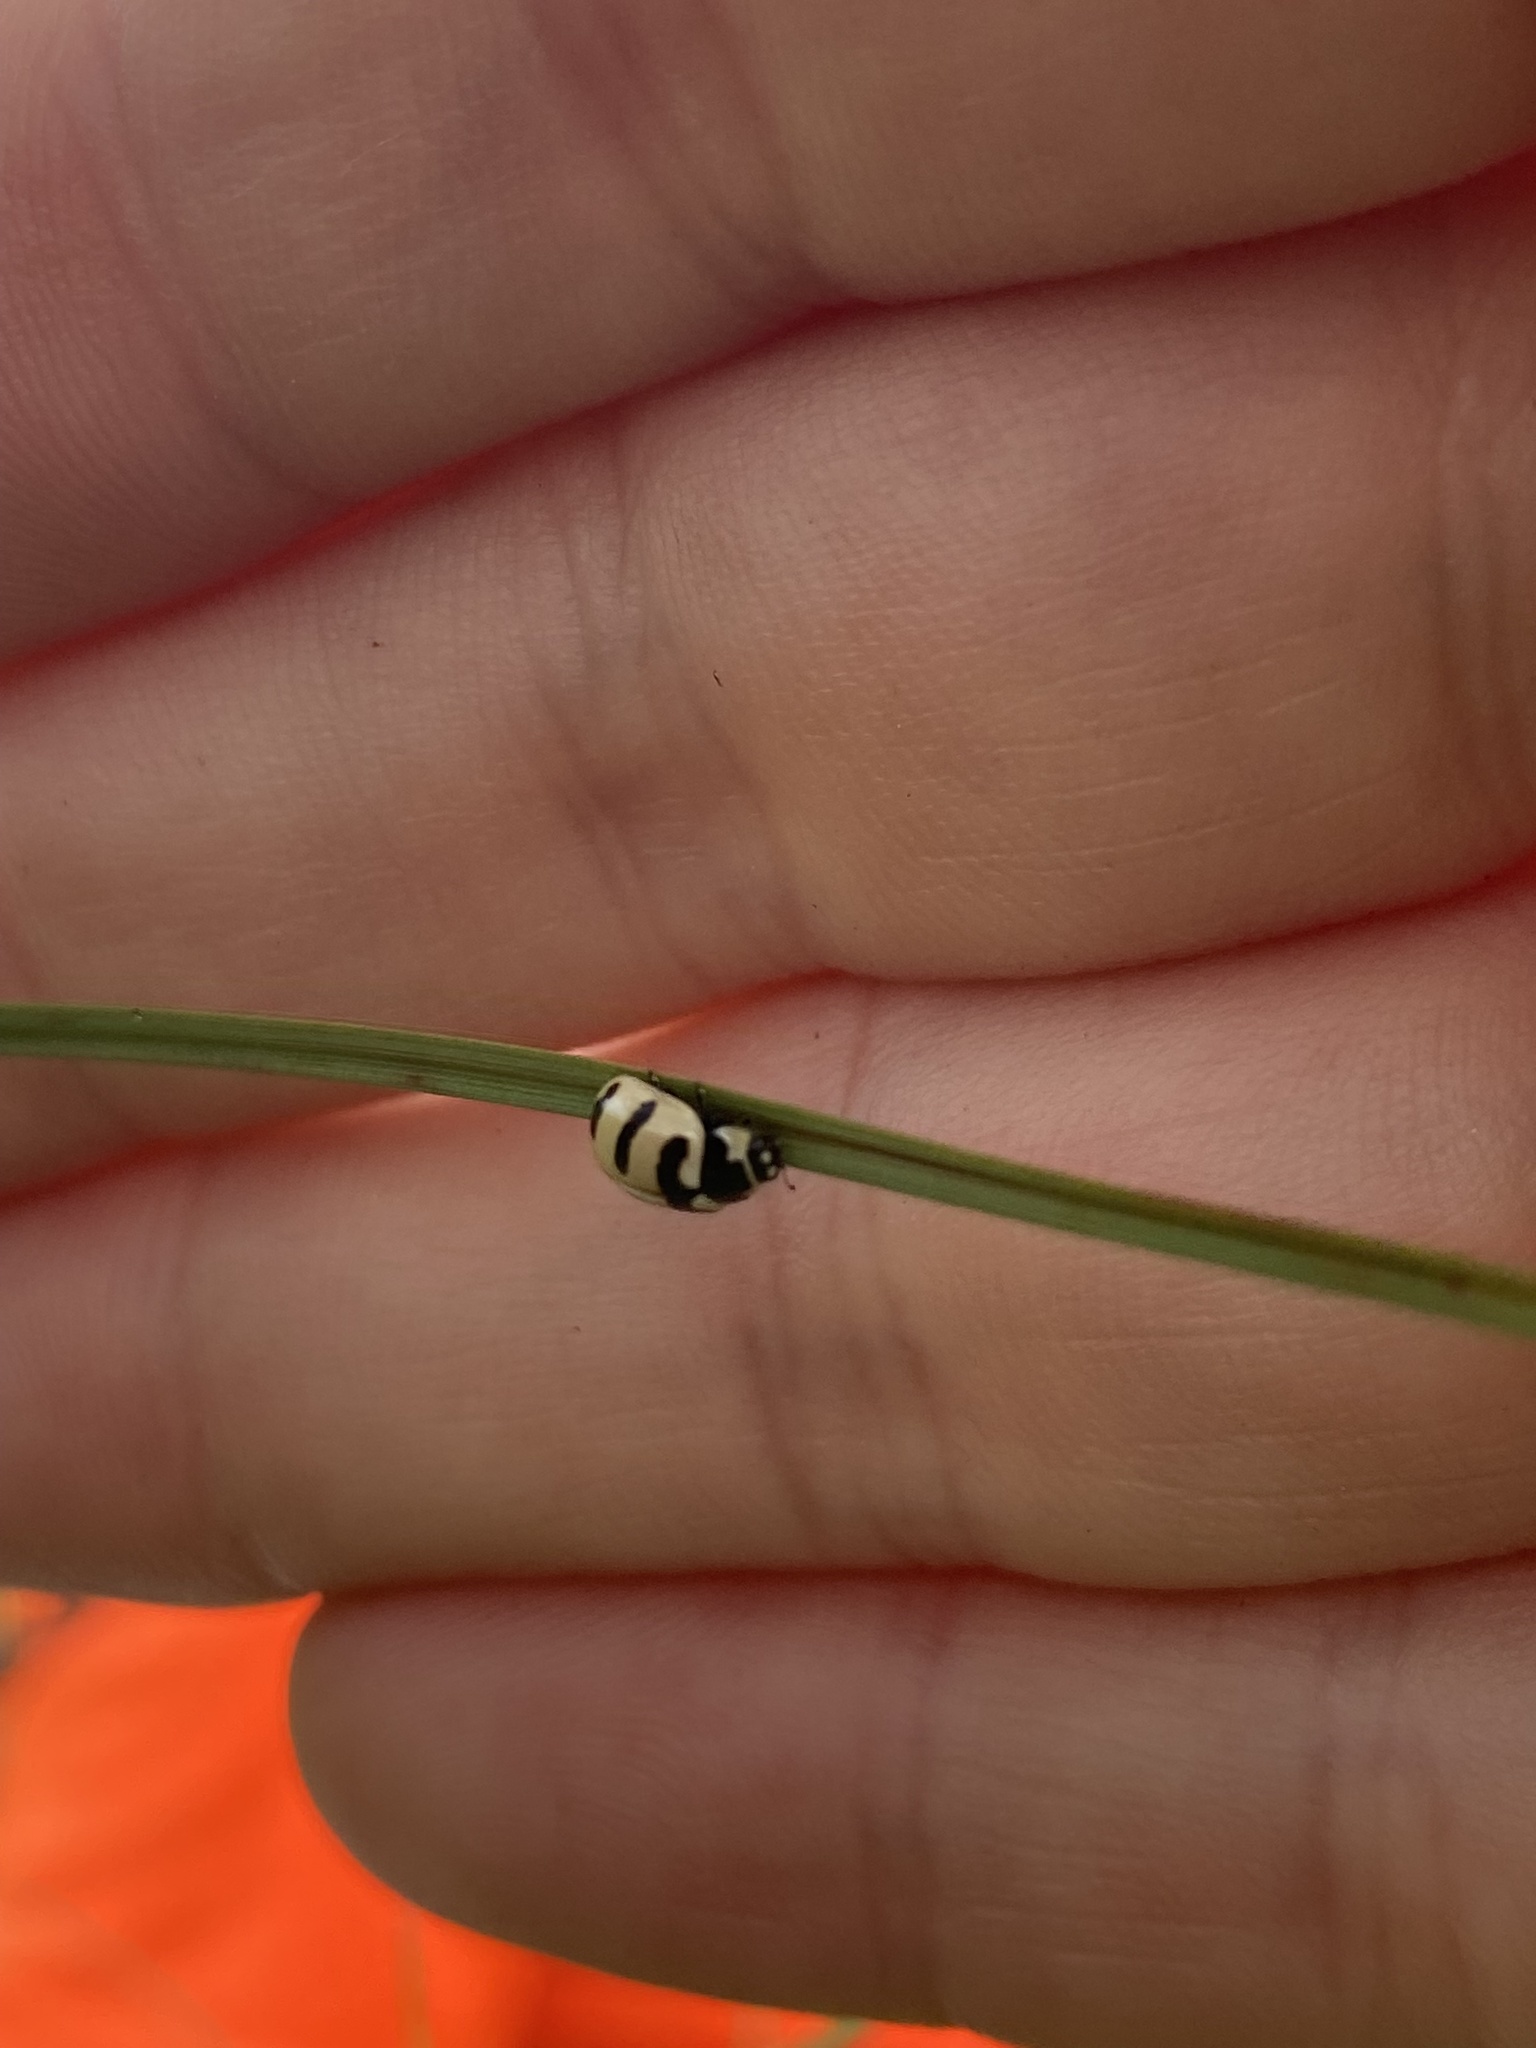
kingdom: Animalia
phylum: Arthropoda
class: Insecta
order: Coleoptera
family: Coccinellidae
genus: Coccinella
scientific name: Coccinella trifasciata
